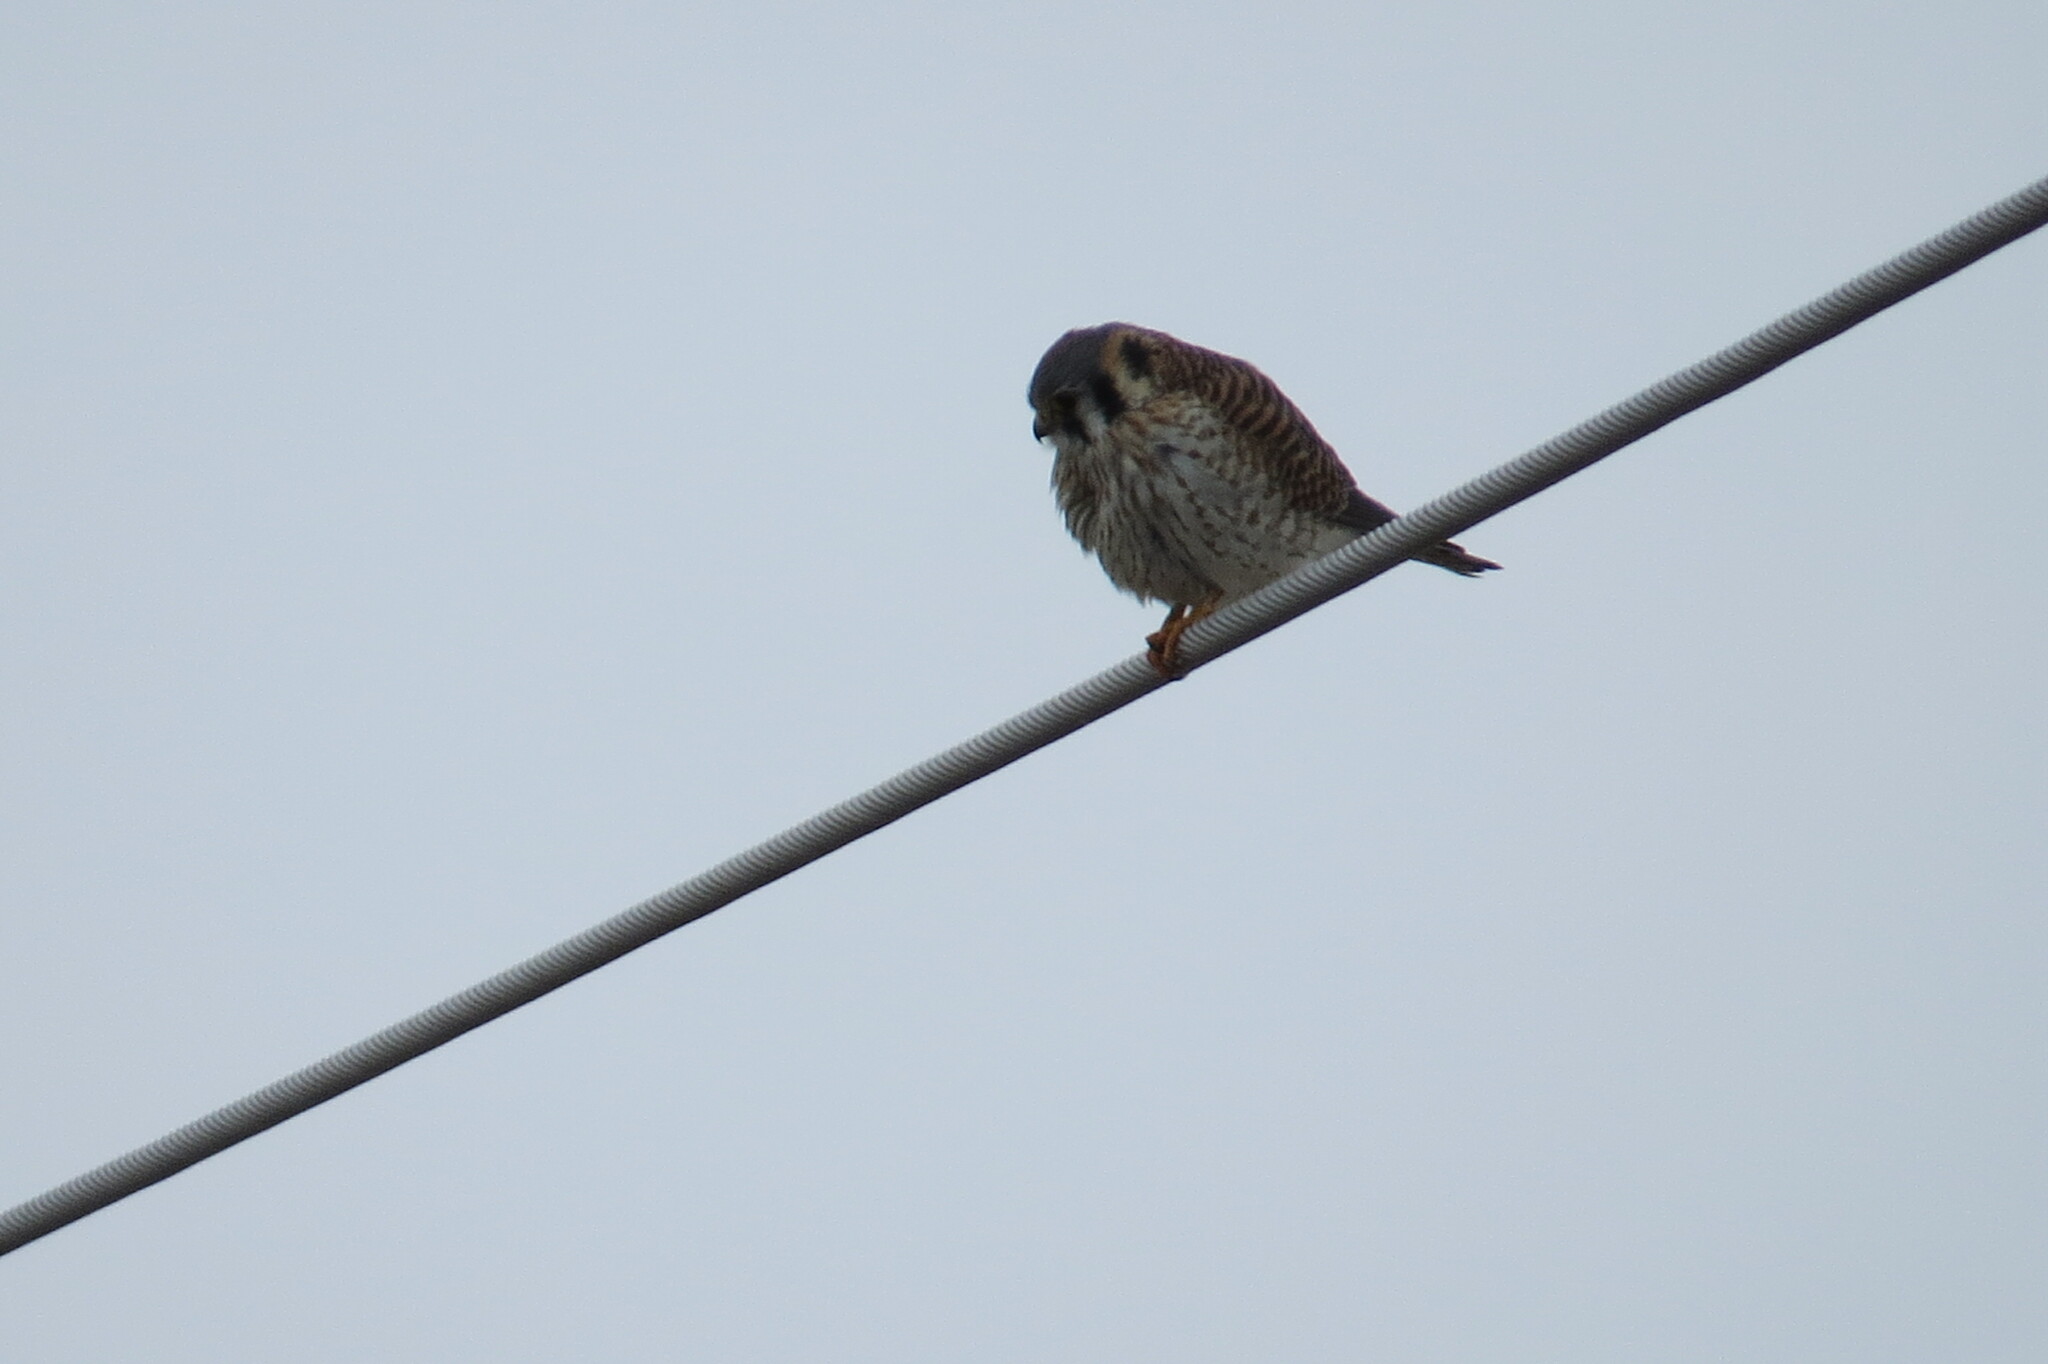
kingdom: Animalia
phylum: Chordata
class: Aves
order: Falconiformes
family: Falconidae
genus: Falco
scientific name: Falco sparverius
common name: American kestrel
